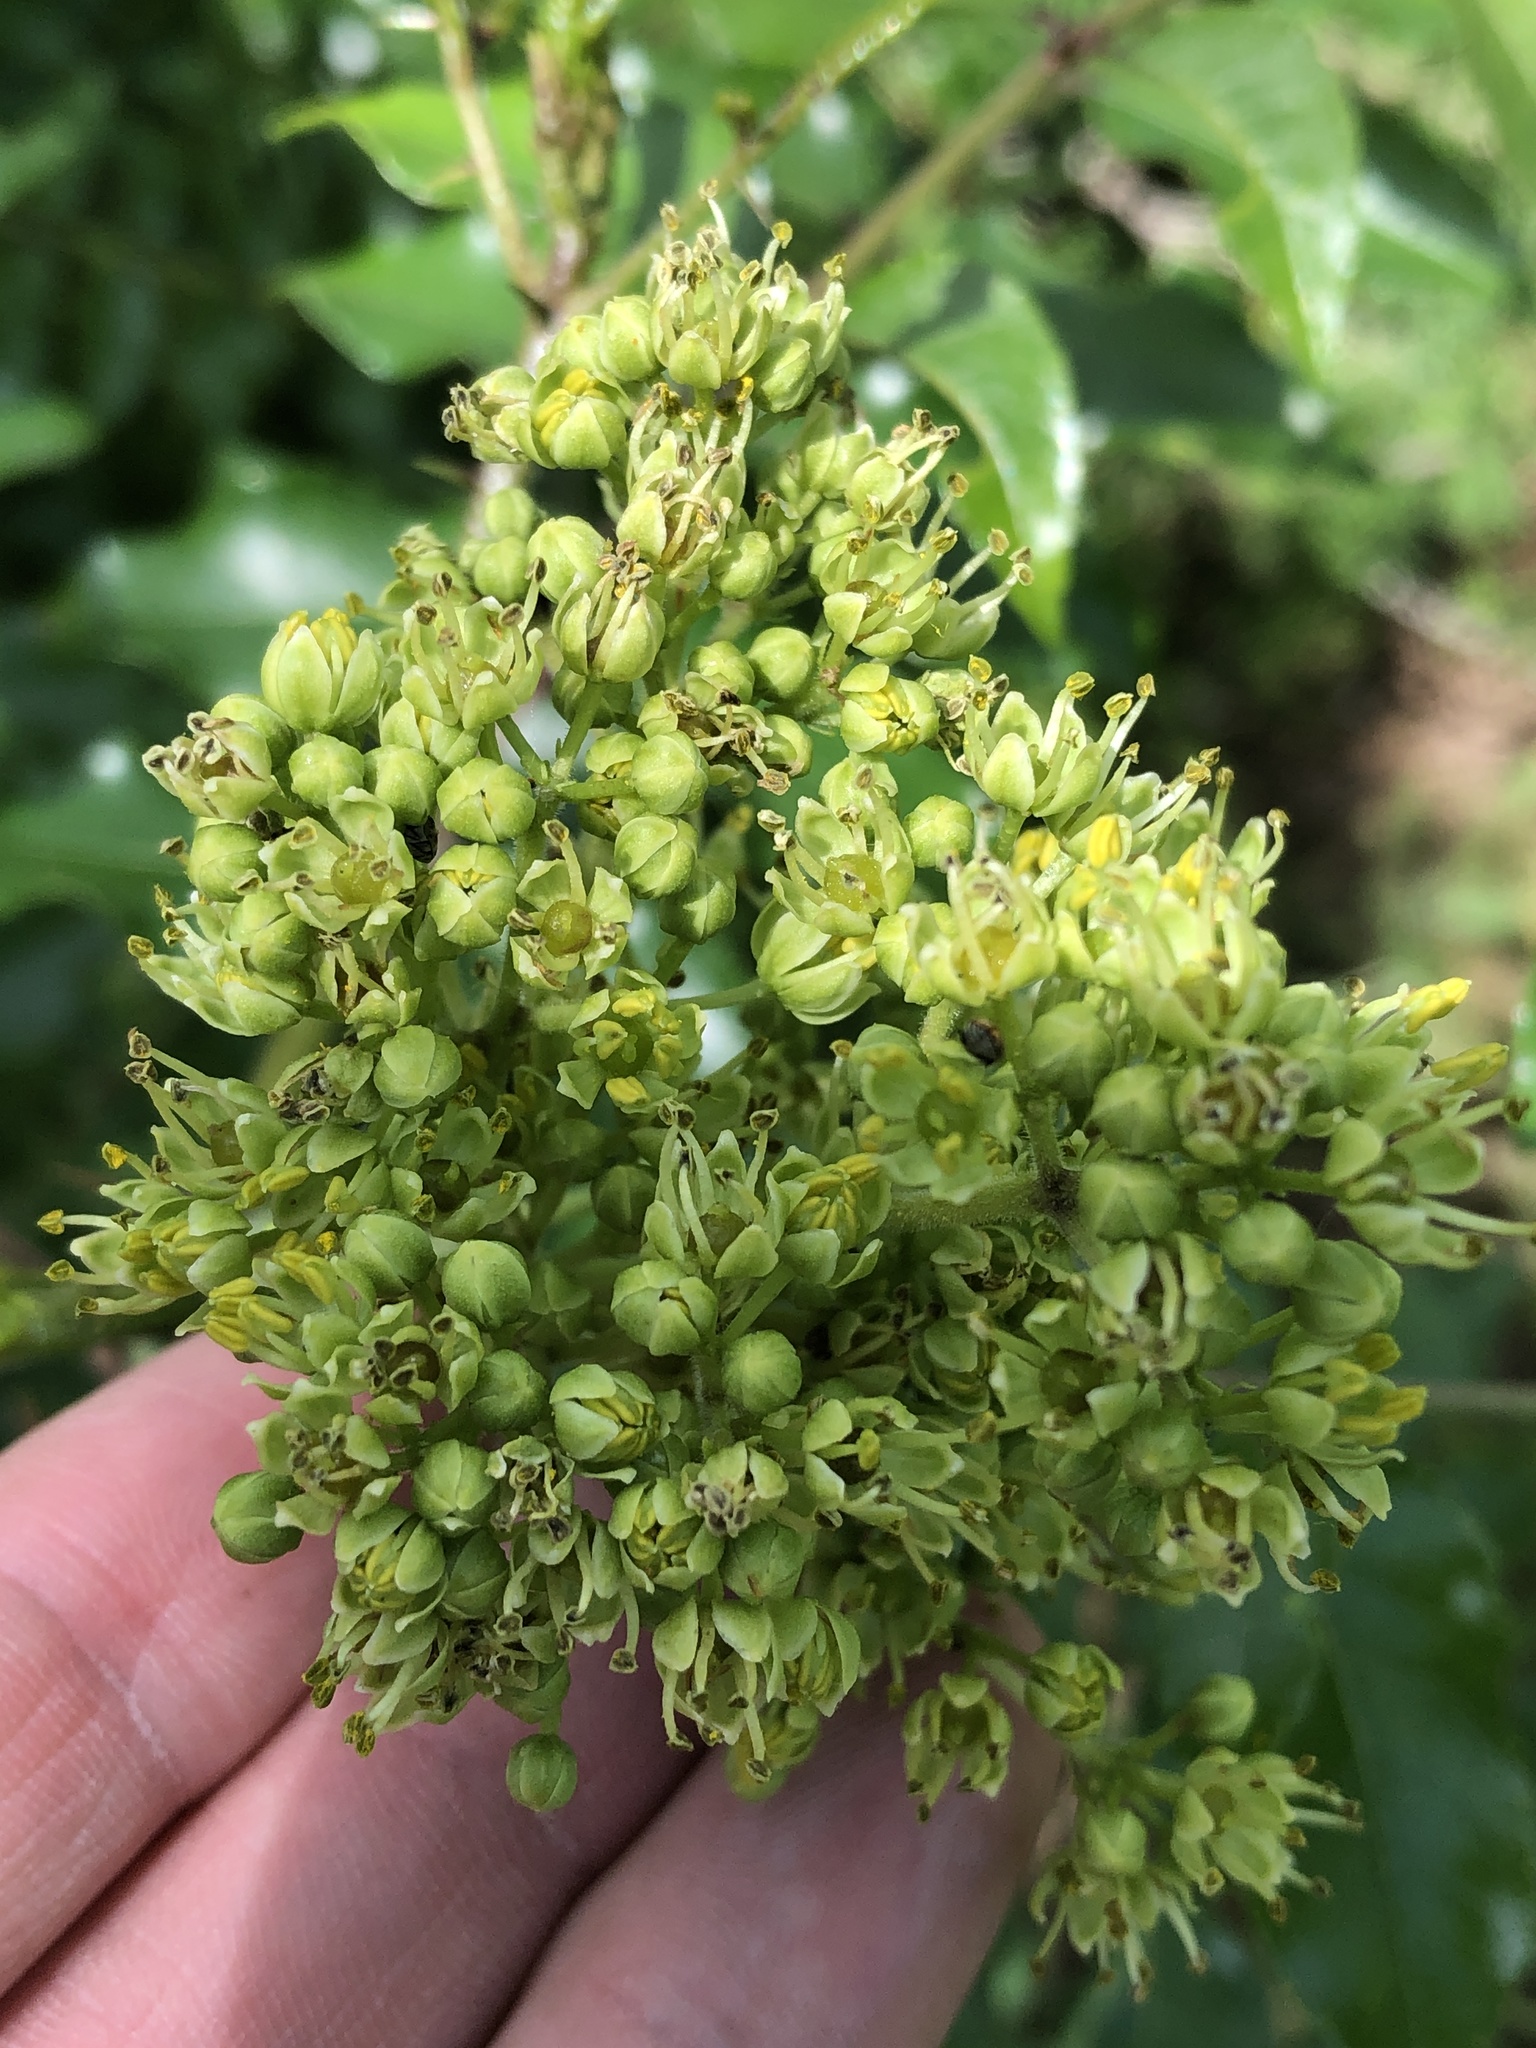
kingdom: Plantae
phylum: Tracheophyta
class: Magnoliopsida
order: Sapindales
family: Rutaceae
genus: Zanthoxylum
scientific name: Zanthoxylum clava-herculis
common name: Hercules'-club
